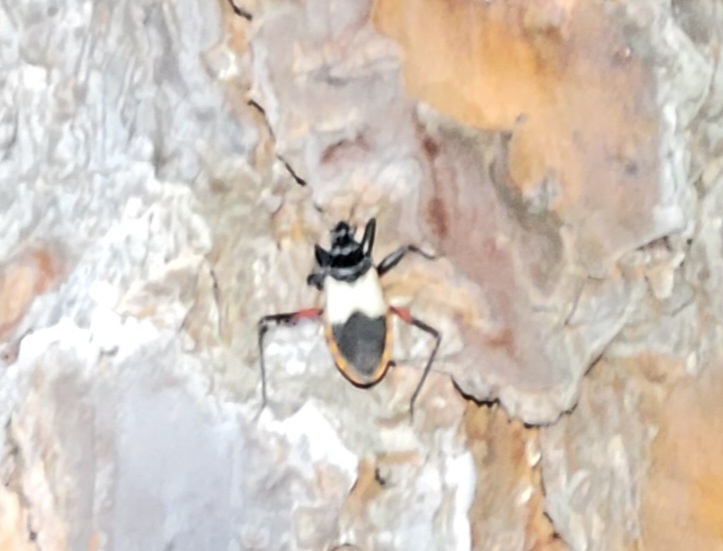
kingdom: Animalia
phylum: Arthropoda
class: Insecta
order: Hemiptera
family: Reduviidae
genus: Microtomus
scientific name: Microtomus purcis
